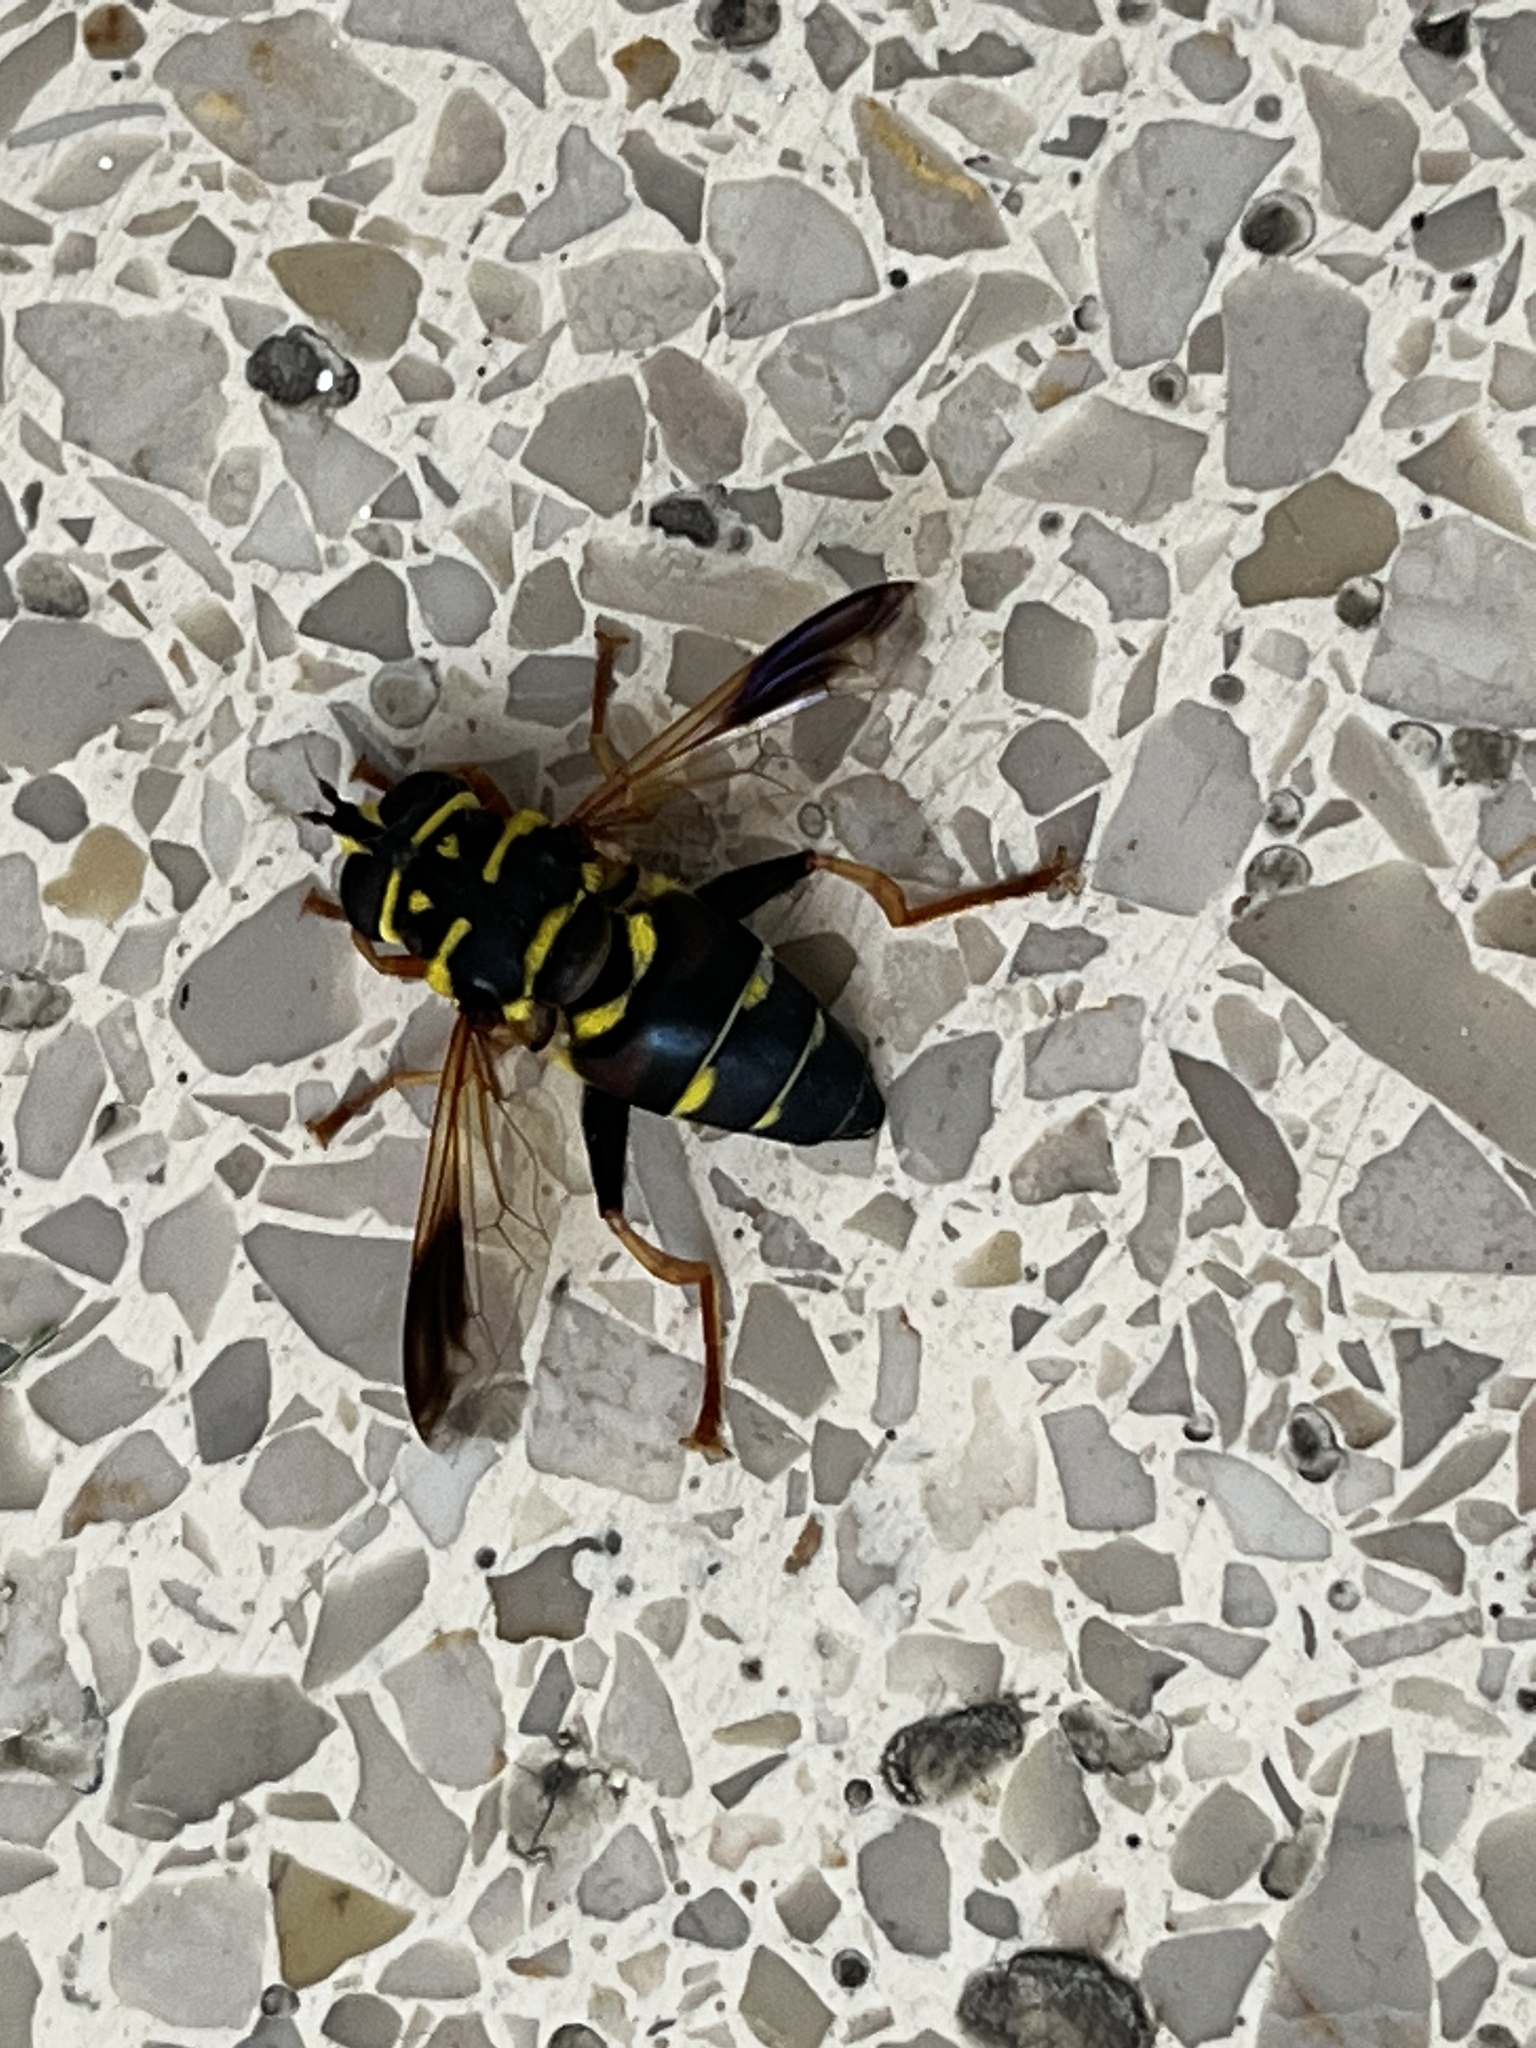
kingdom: Animalia
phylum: Arthropoda
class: Insecta
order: Diptera
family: Syrphidae
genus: Meromacrus
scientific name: Meromacrus acutus
